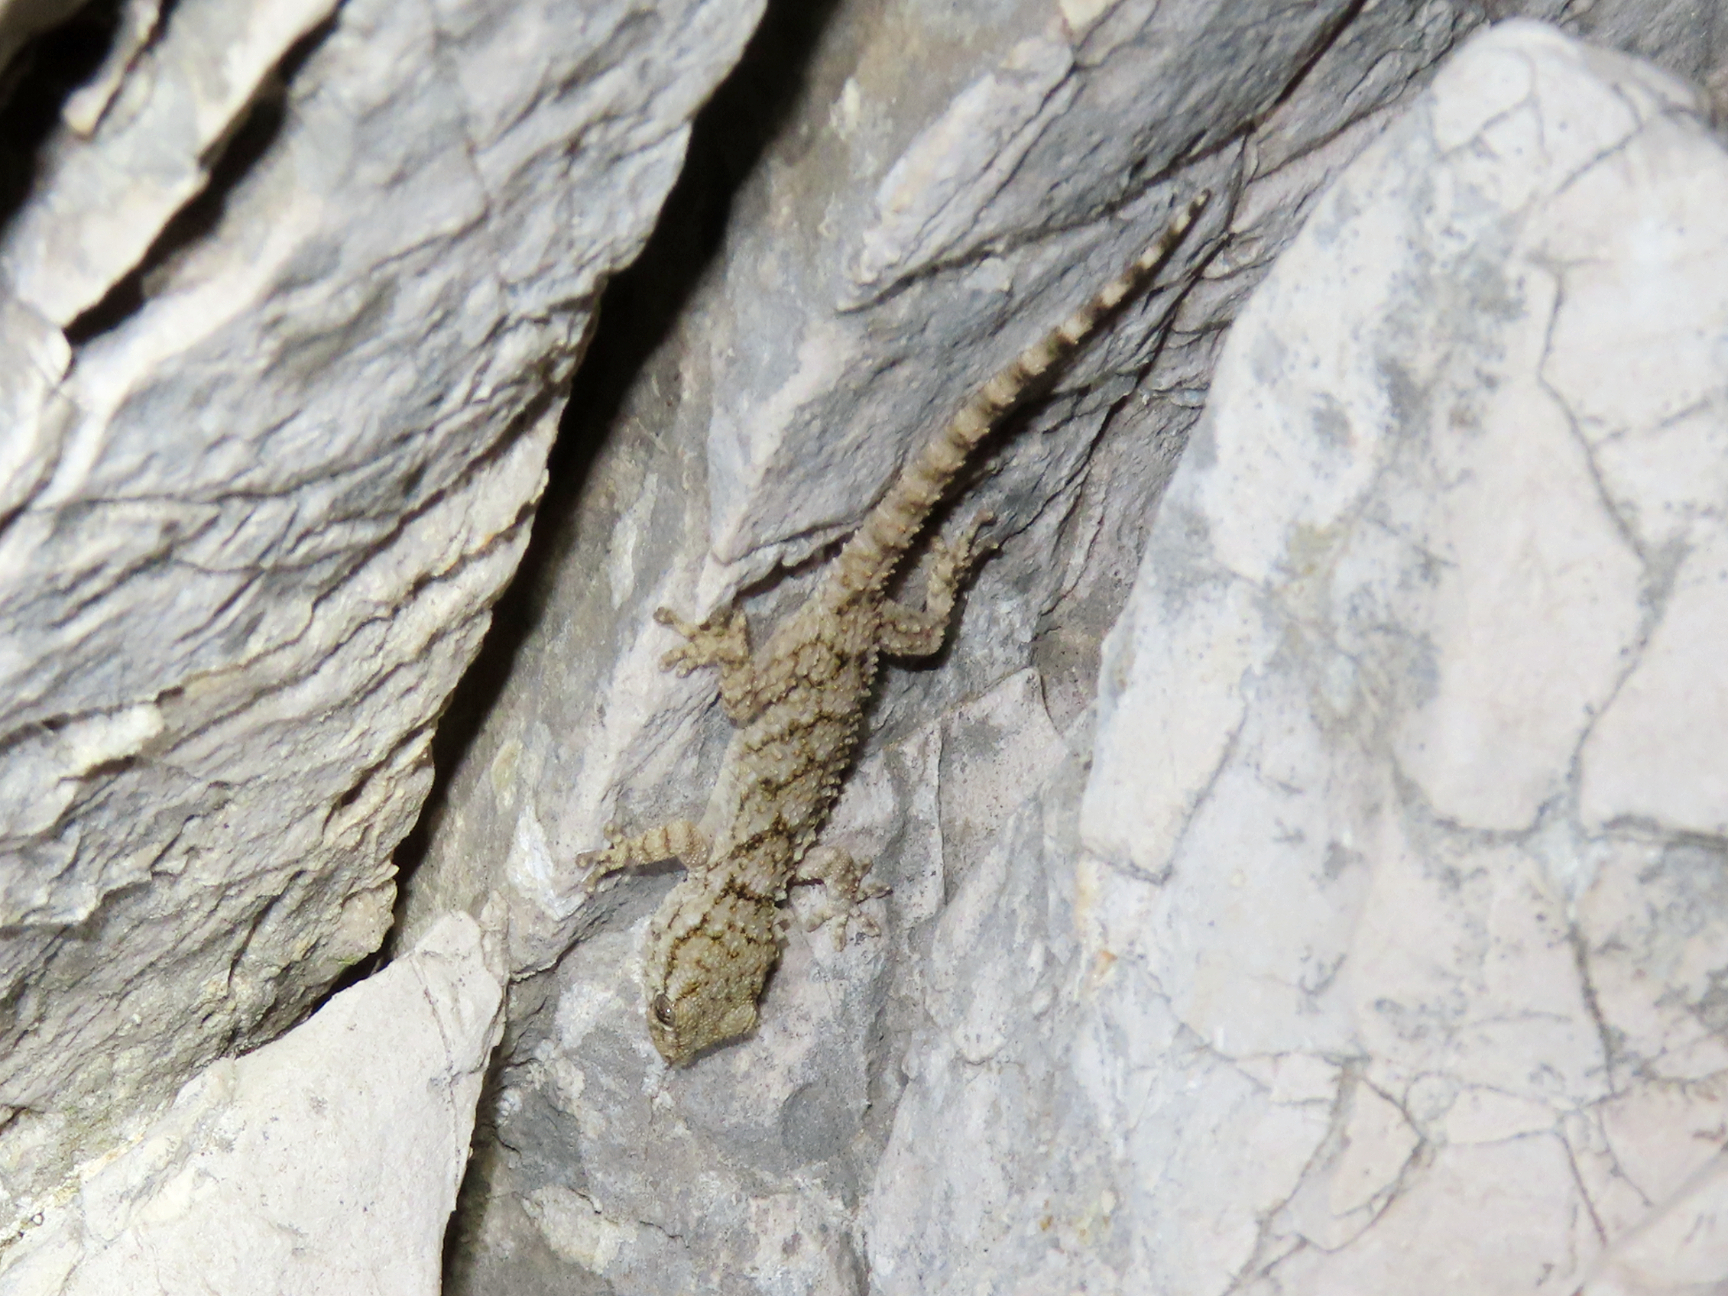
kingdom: Animalia
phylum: Chordata
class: Squamata
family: Phyllodactylidae
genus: Tarentola
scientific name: Tarentola mauritanica
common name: Moorish gecko
